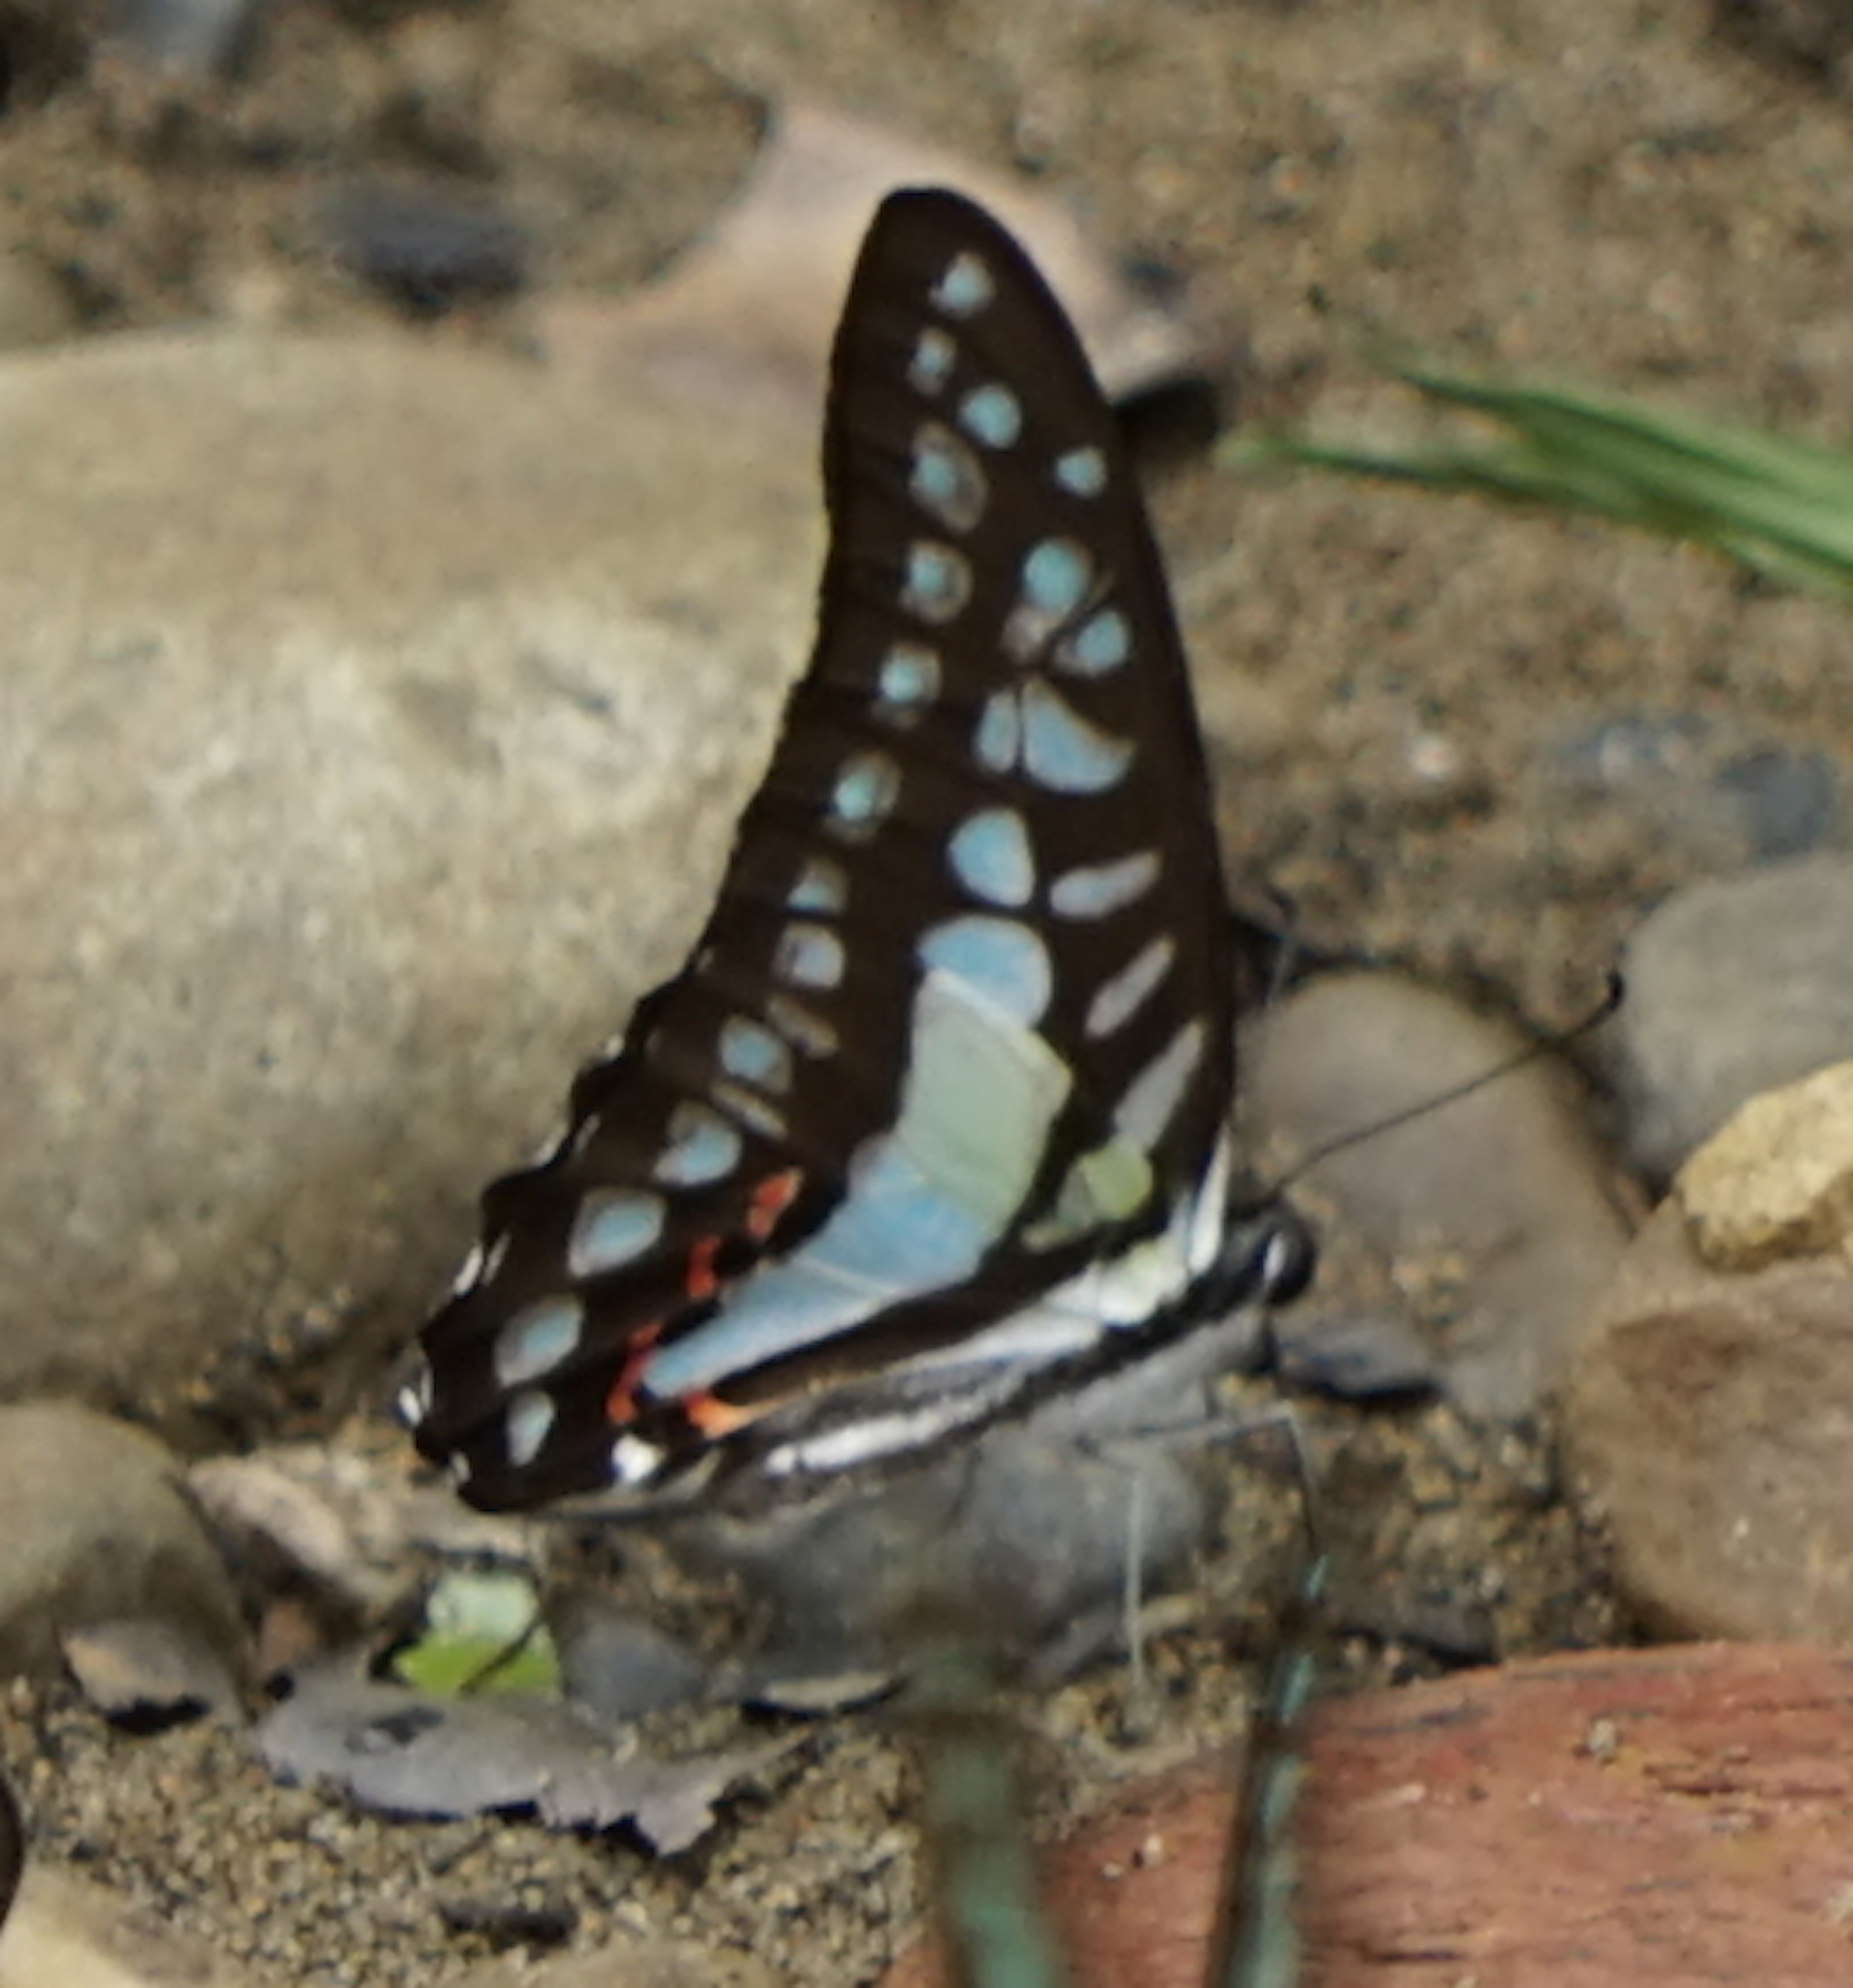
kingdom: Animalia
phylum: Arthropoda
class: Insecta
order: Lepidoptera
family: Papilionidae
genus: Graphium
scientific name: Graphium evemon
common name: Lesser jay
